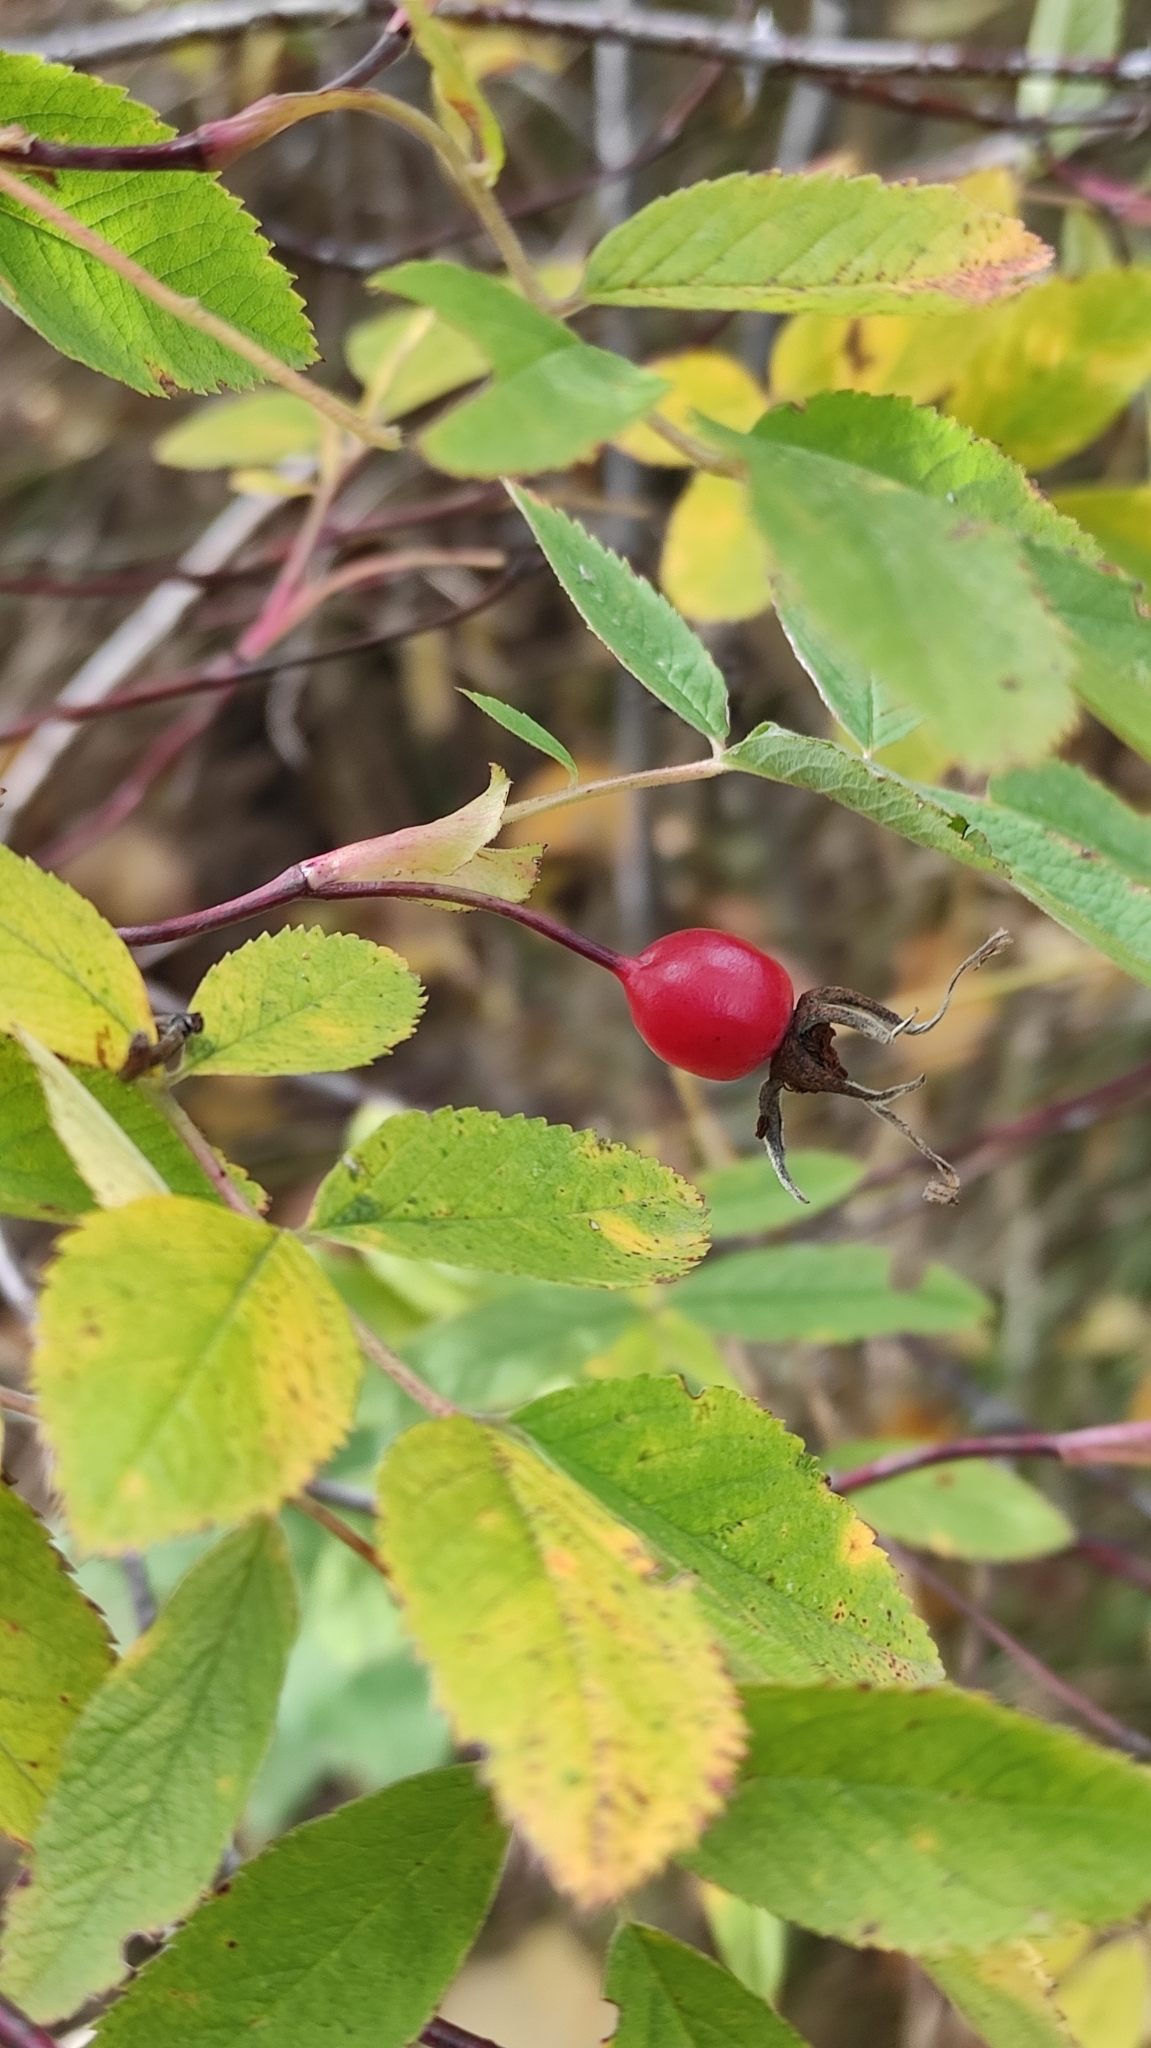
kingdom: Plantae
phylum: Tracheophyta
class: Magnoliopsida
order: Rosales
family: Rosaceae
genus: Rosa
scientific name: Rosa majalis
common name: Cinnamon rose
